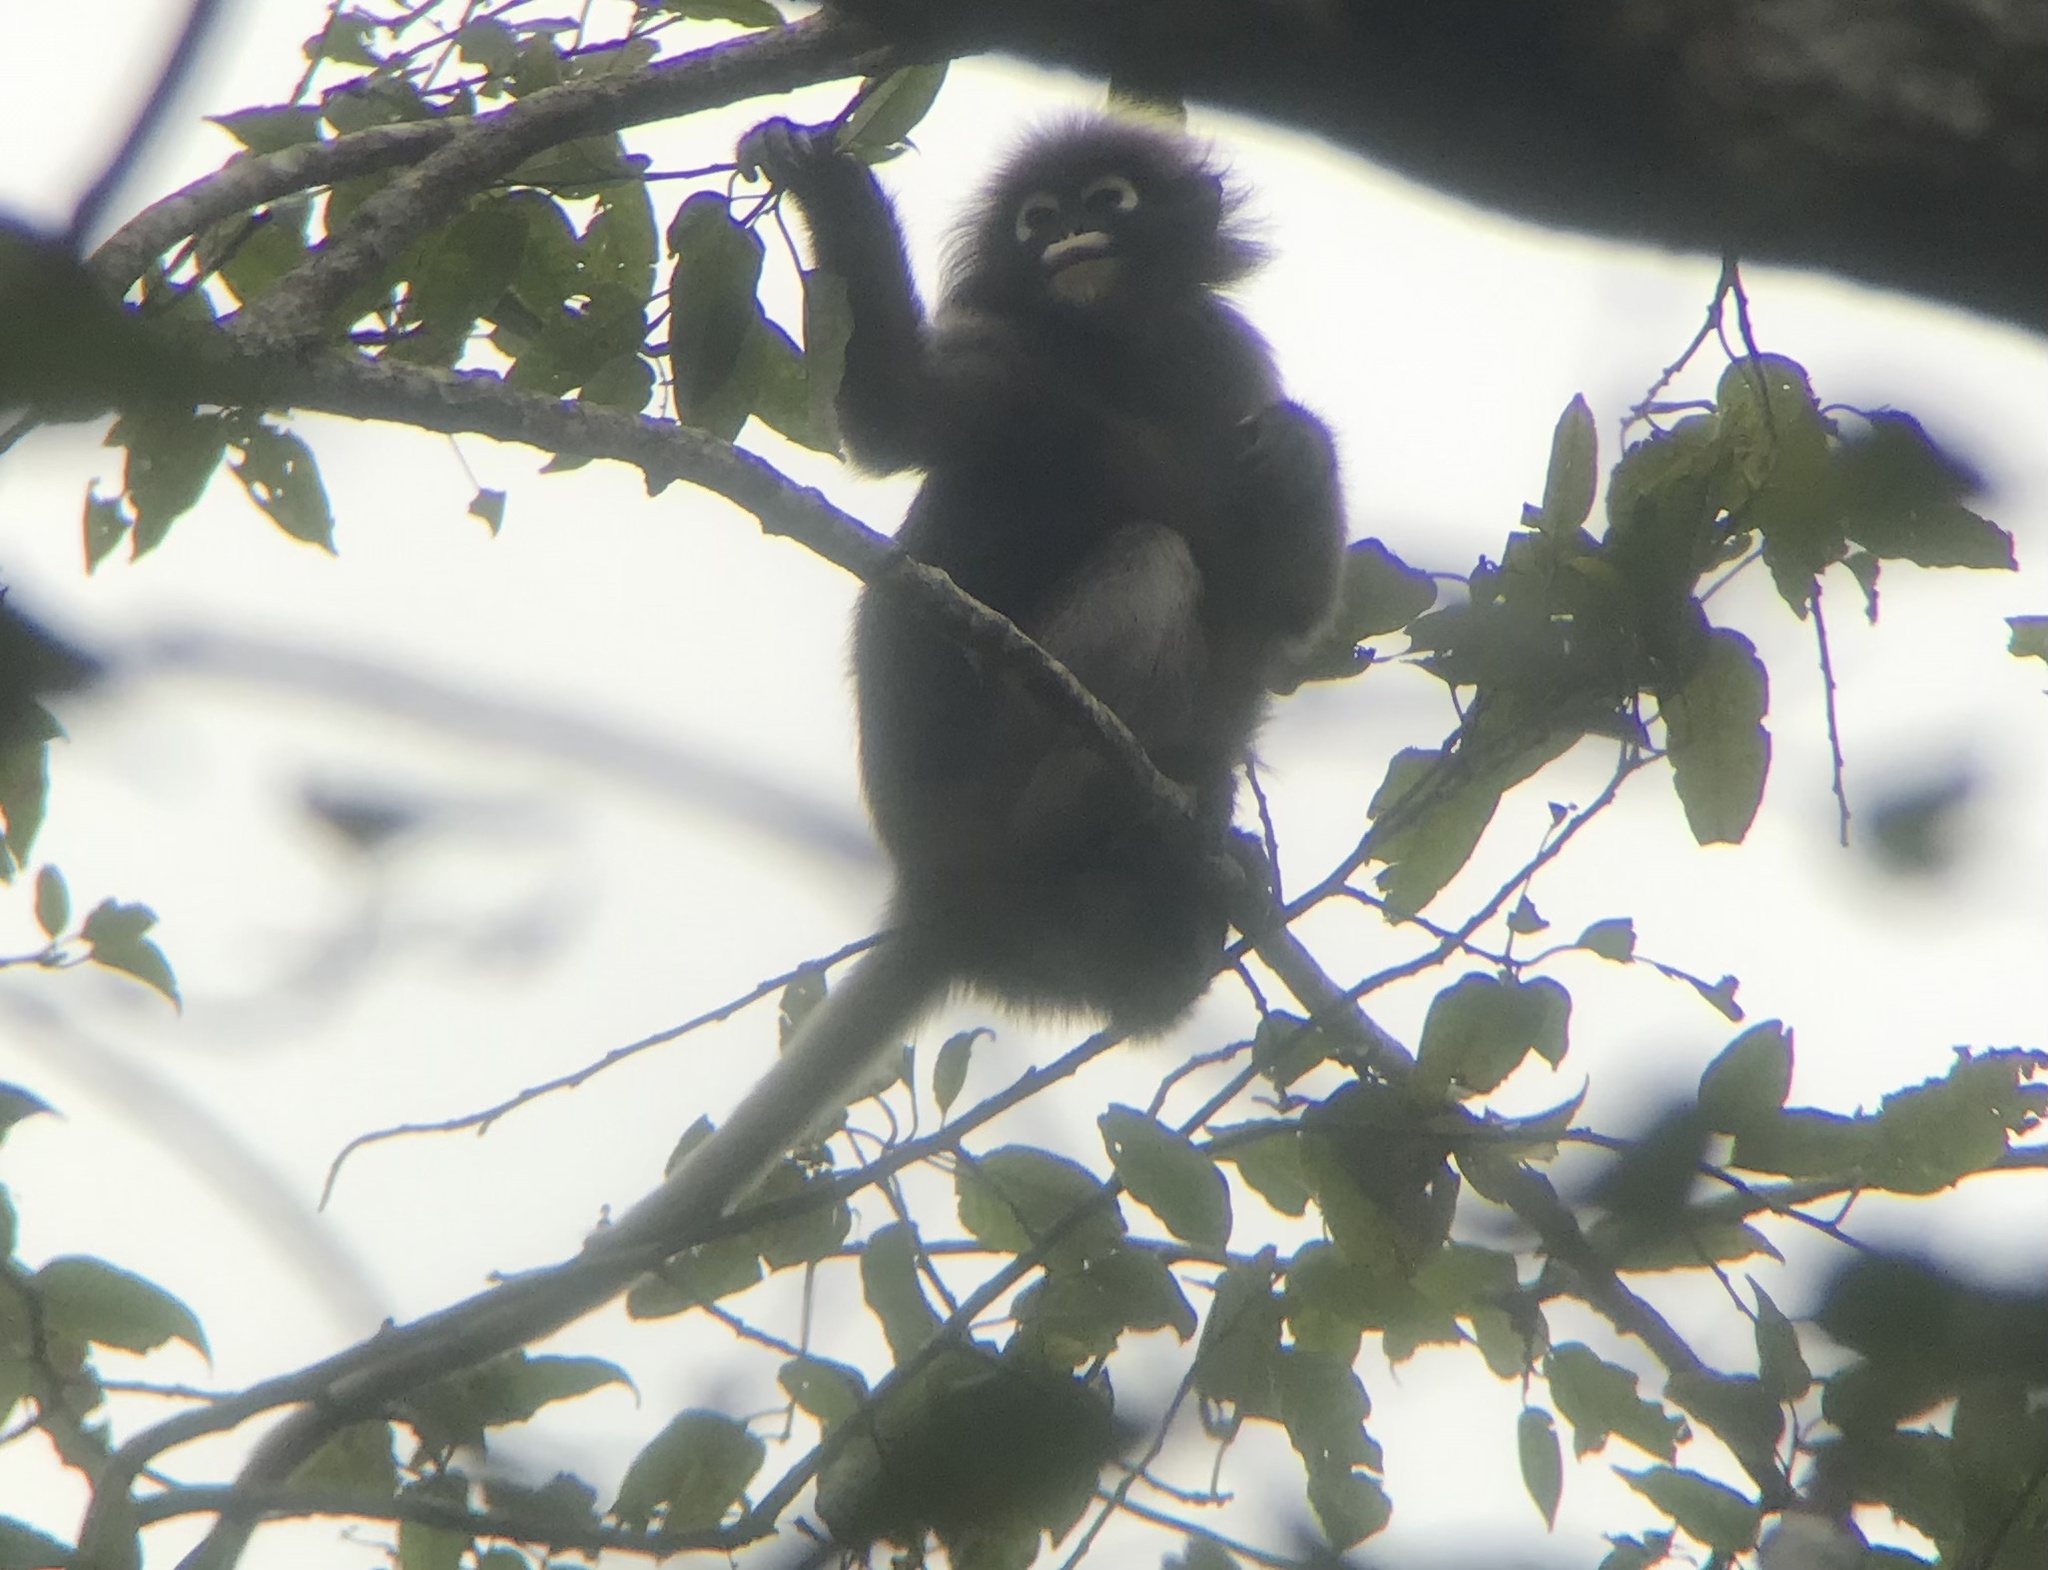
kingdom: Animalia
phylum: Chordata
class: Mammalia
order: Primates
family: Cercopithecidae
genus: Trachypithecus
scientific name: Trachypithecus obscurus
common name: Dusky leaf-monkey
